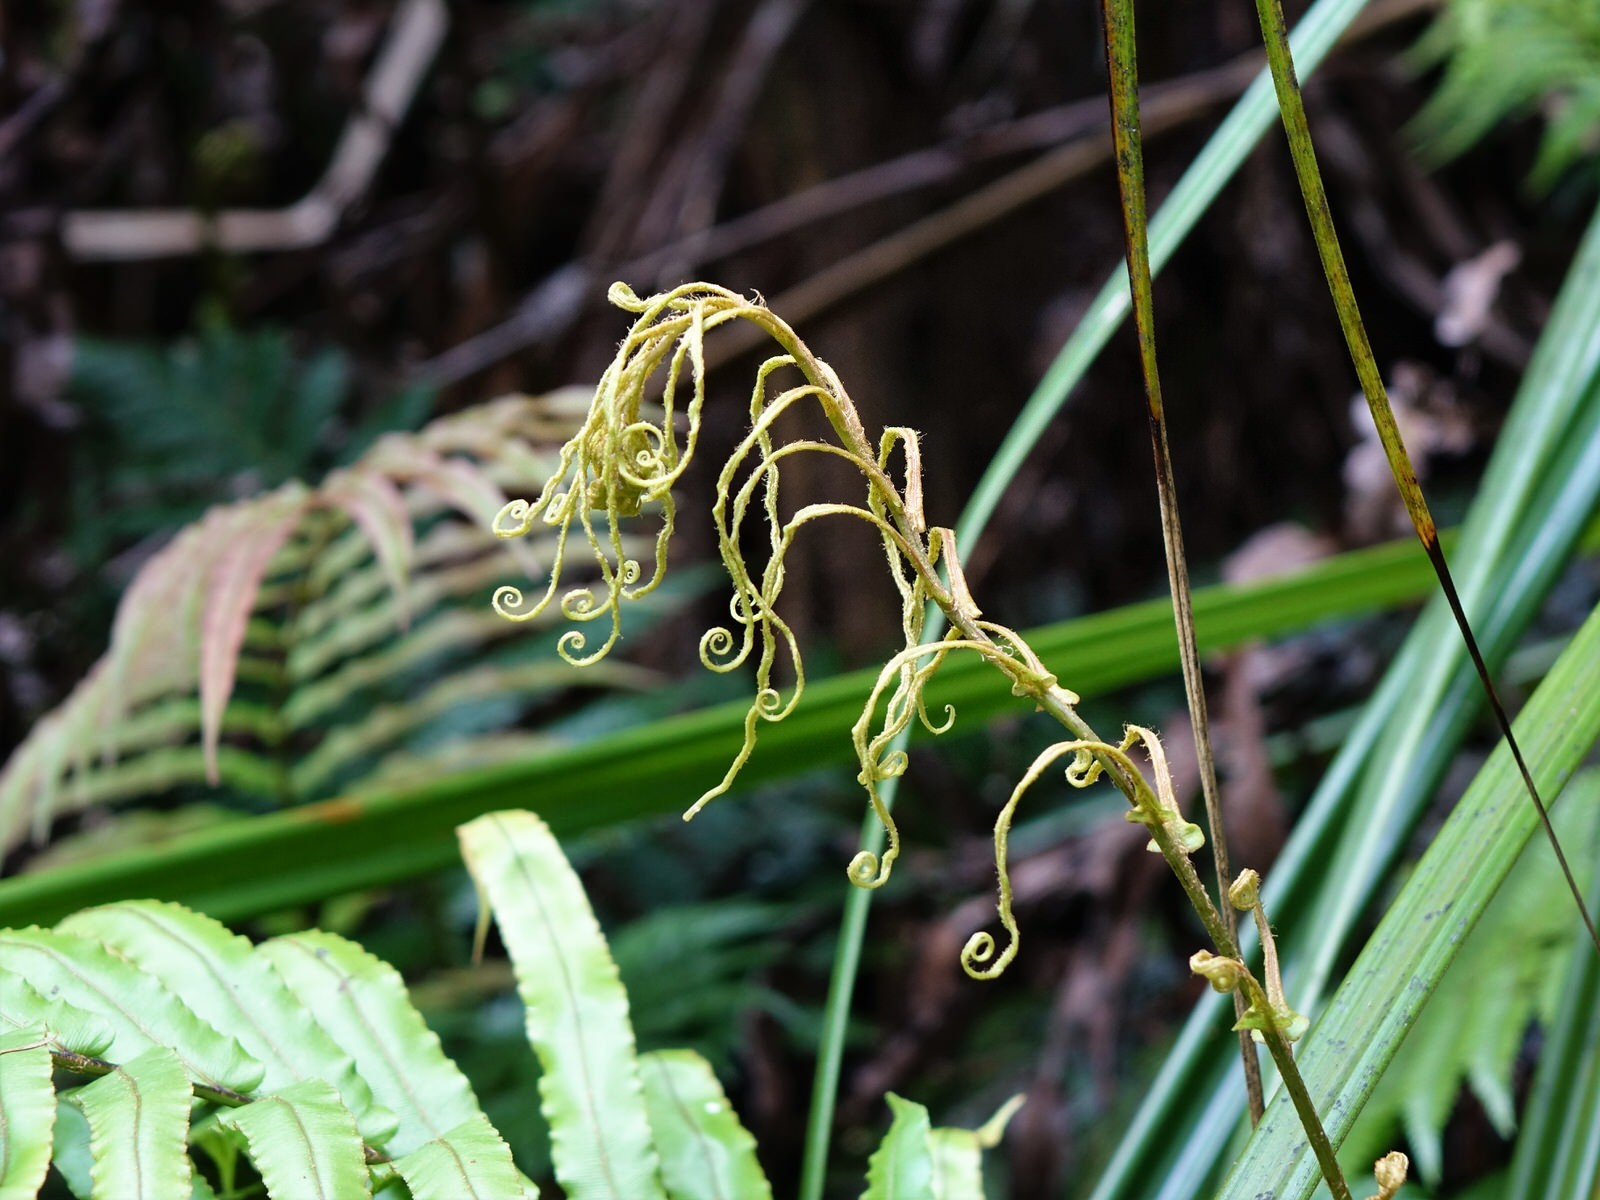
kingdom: Plantae
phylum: Tracheophyta
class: Polypodiopsida
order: Polypodiales
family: Blechnaceae
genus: Parablechnum
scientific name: Parablechnum novae-zelandiae
